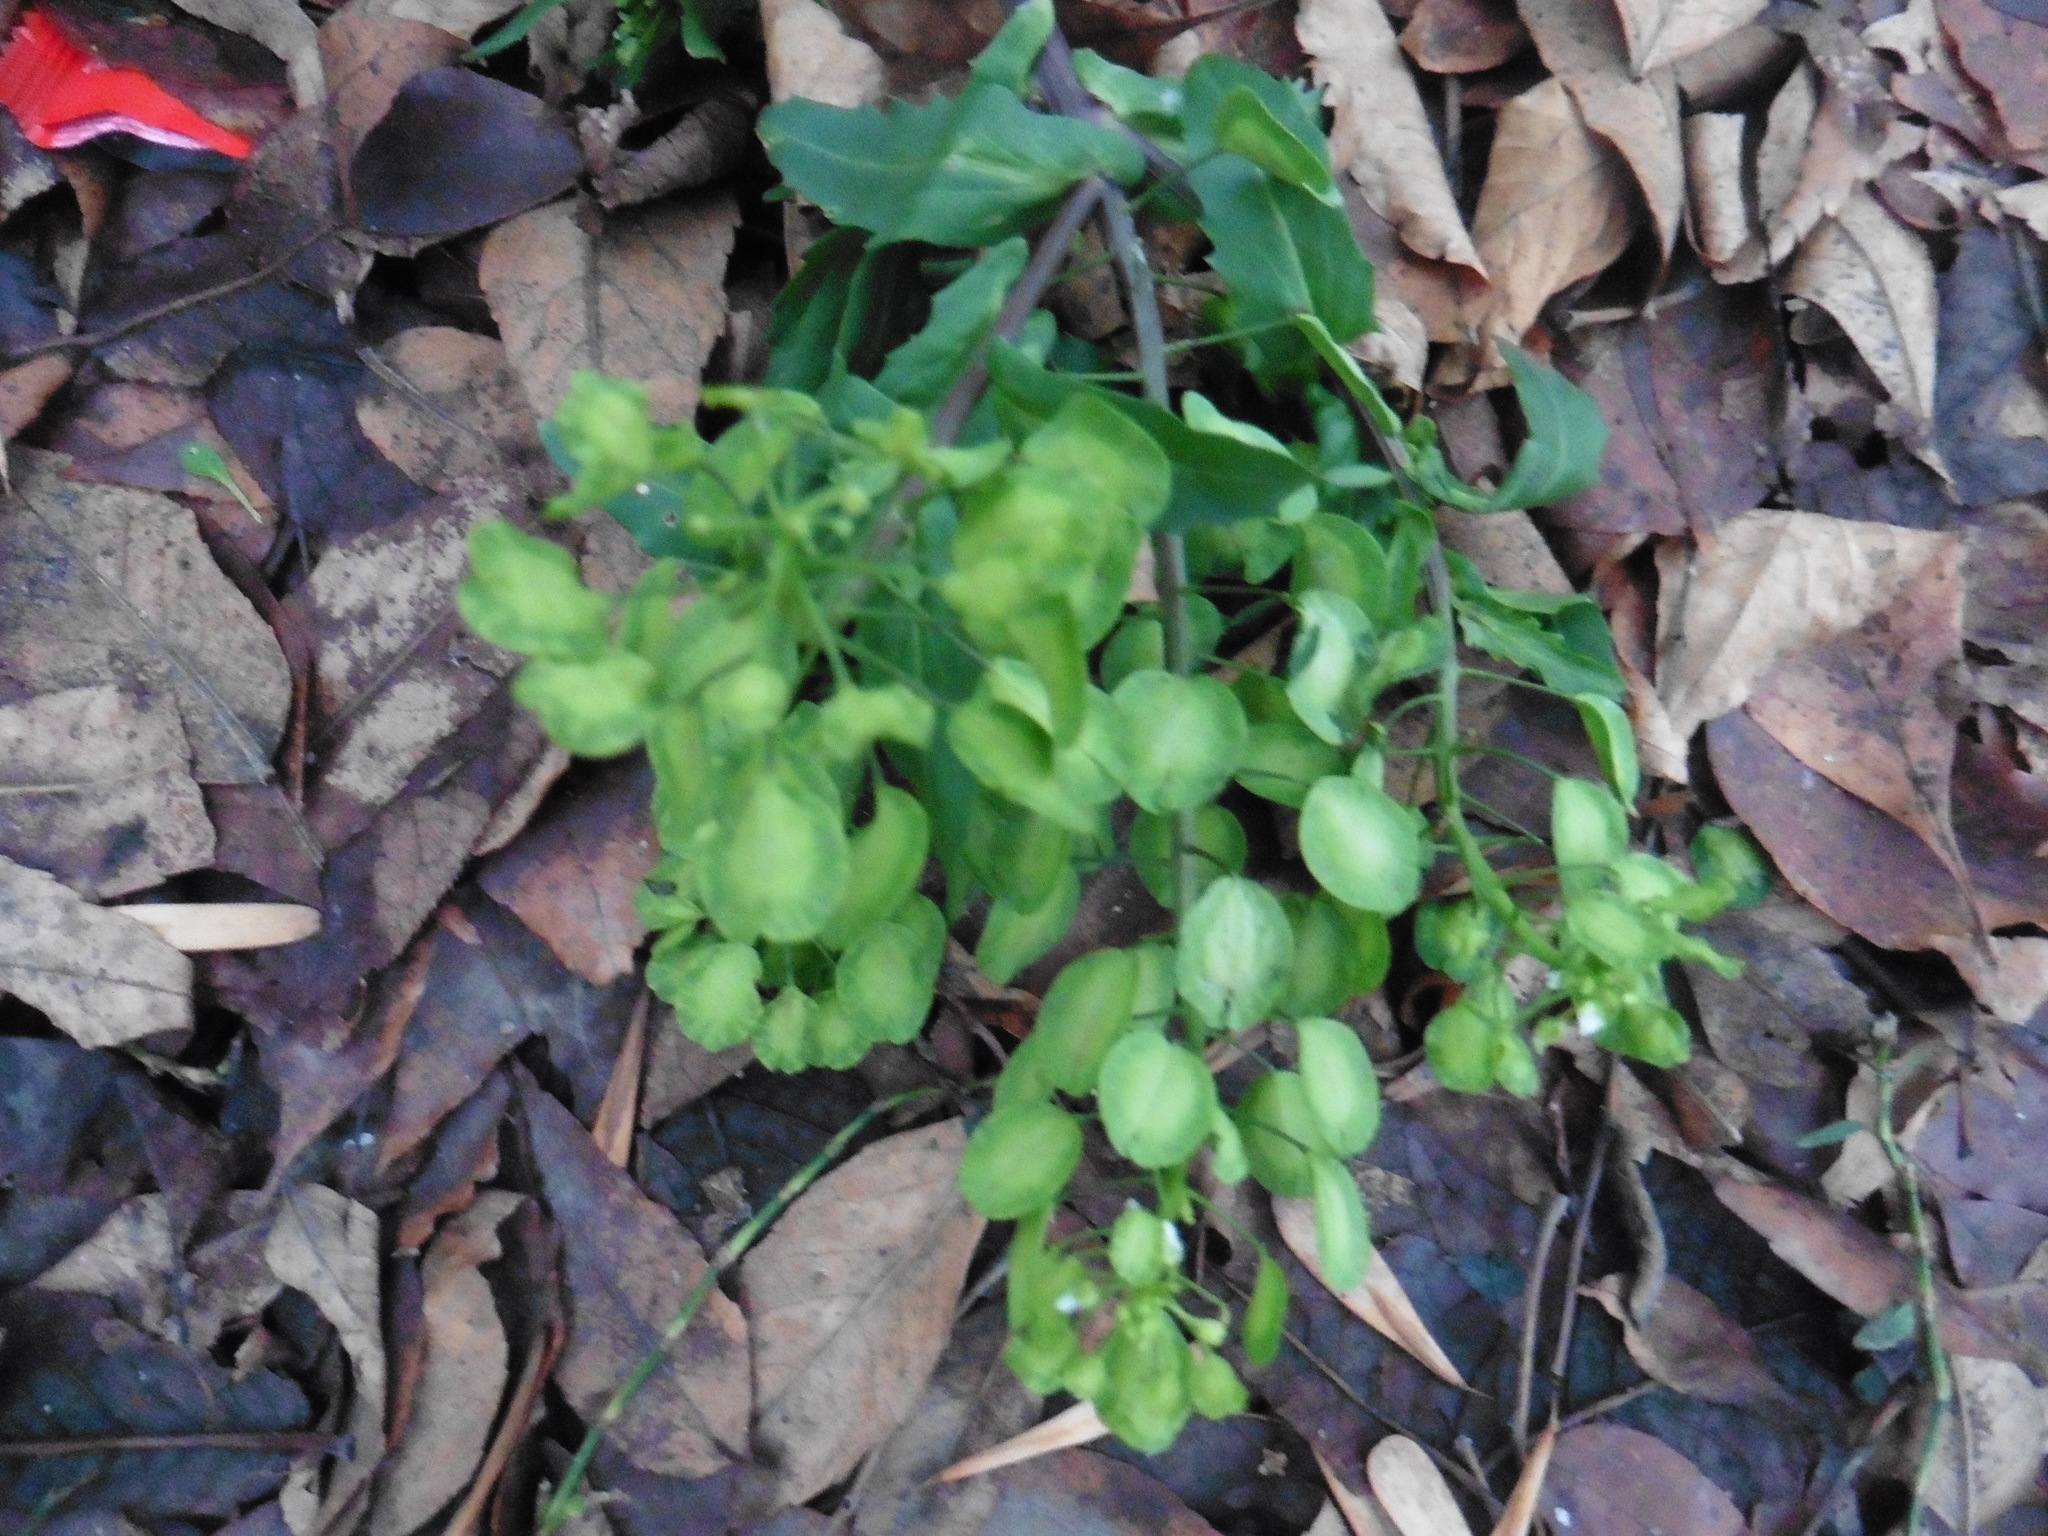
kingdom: Plantae
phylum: Tracheophyta
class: Magnoliopsida
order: Brassicales
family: Brassicaceae
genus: Thlaspi
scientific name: Thlaspi arvense
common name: Field pennycress
